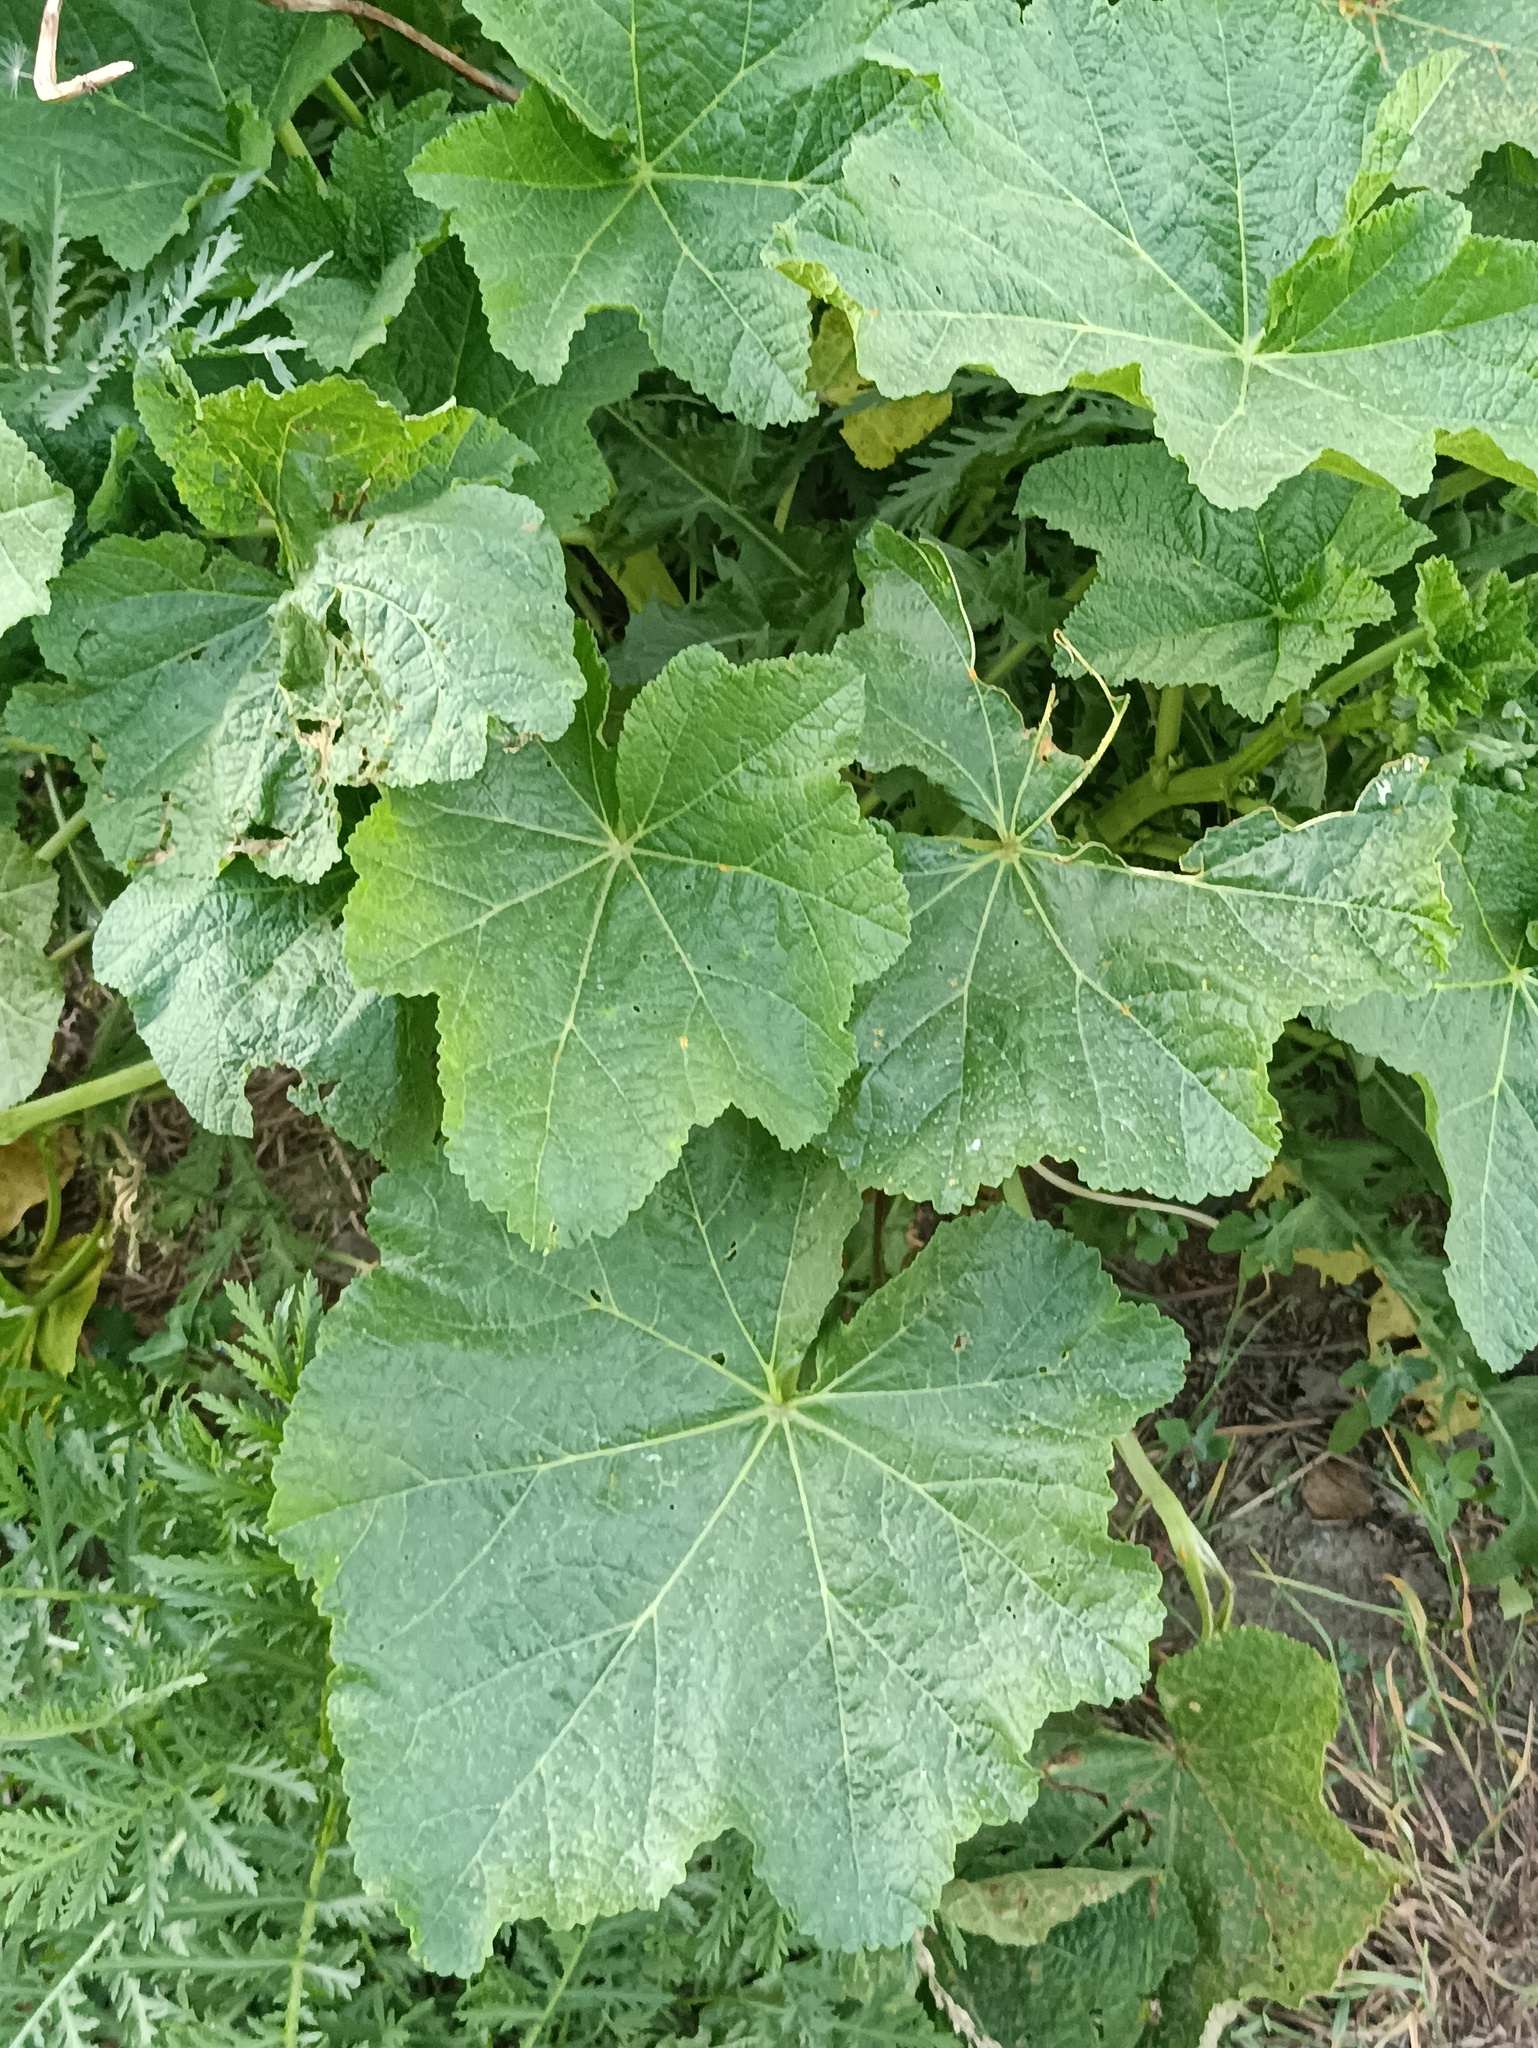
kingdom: Plantae
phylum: Tracheophyta
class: Magnoliopsida
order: Malvales
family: Malvaceae
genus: Alcea
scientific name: Alcea rosea
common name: Hollyhock
